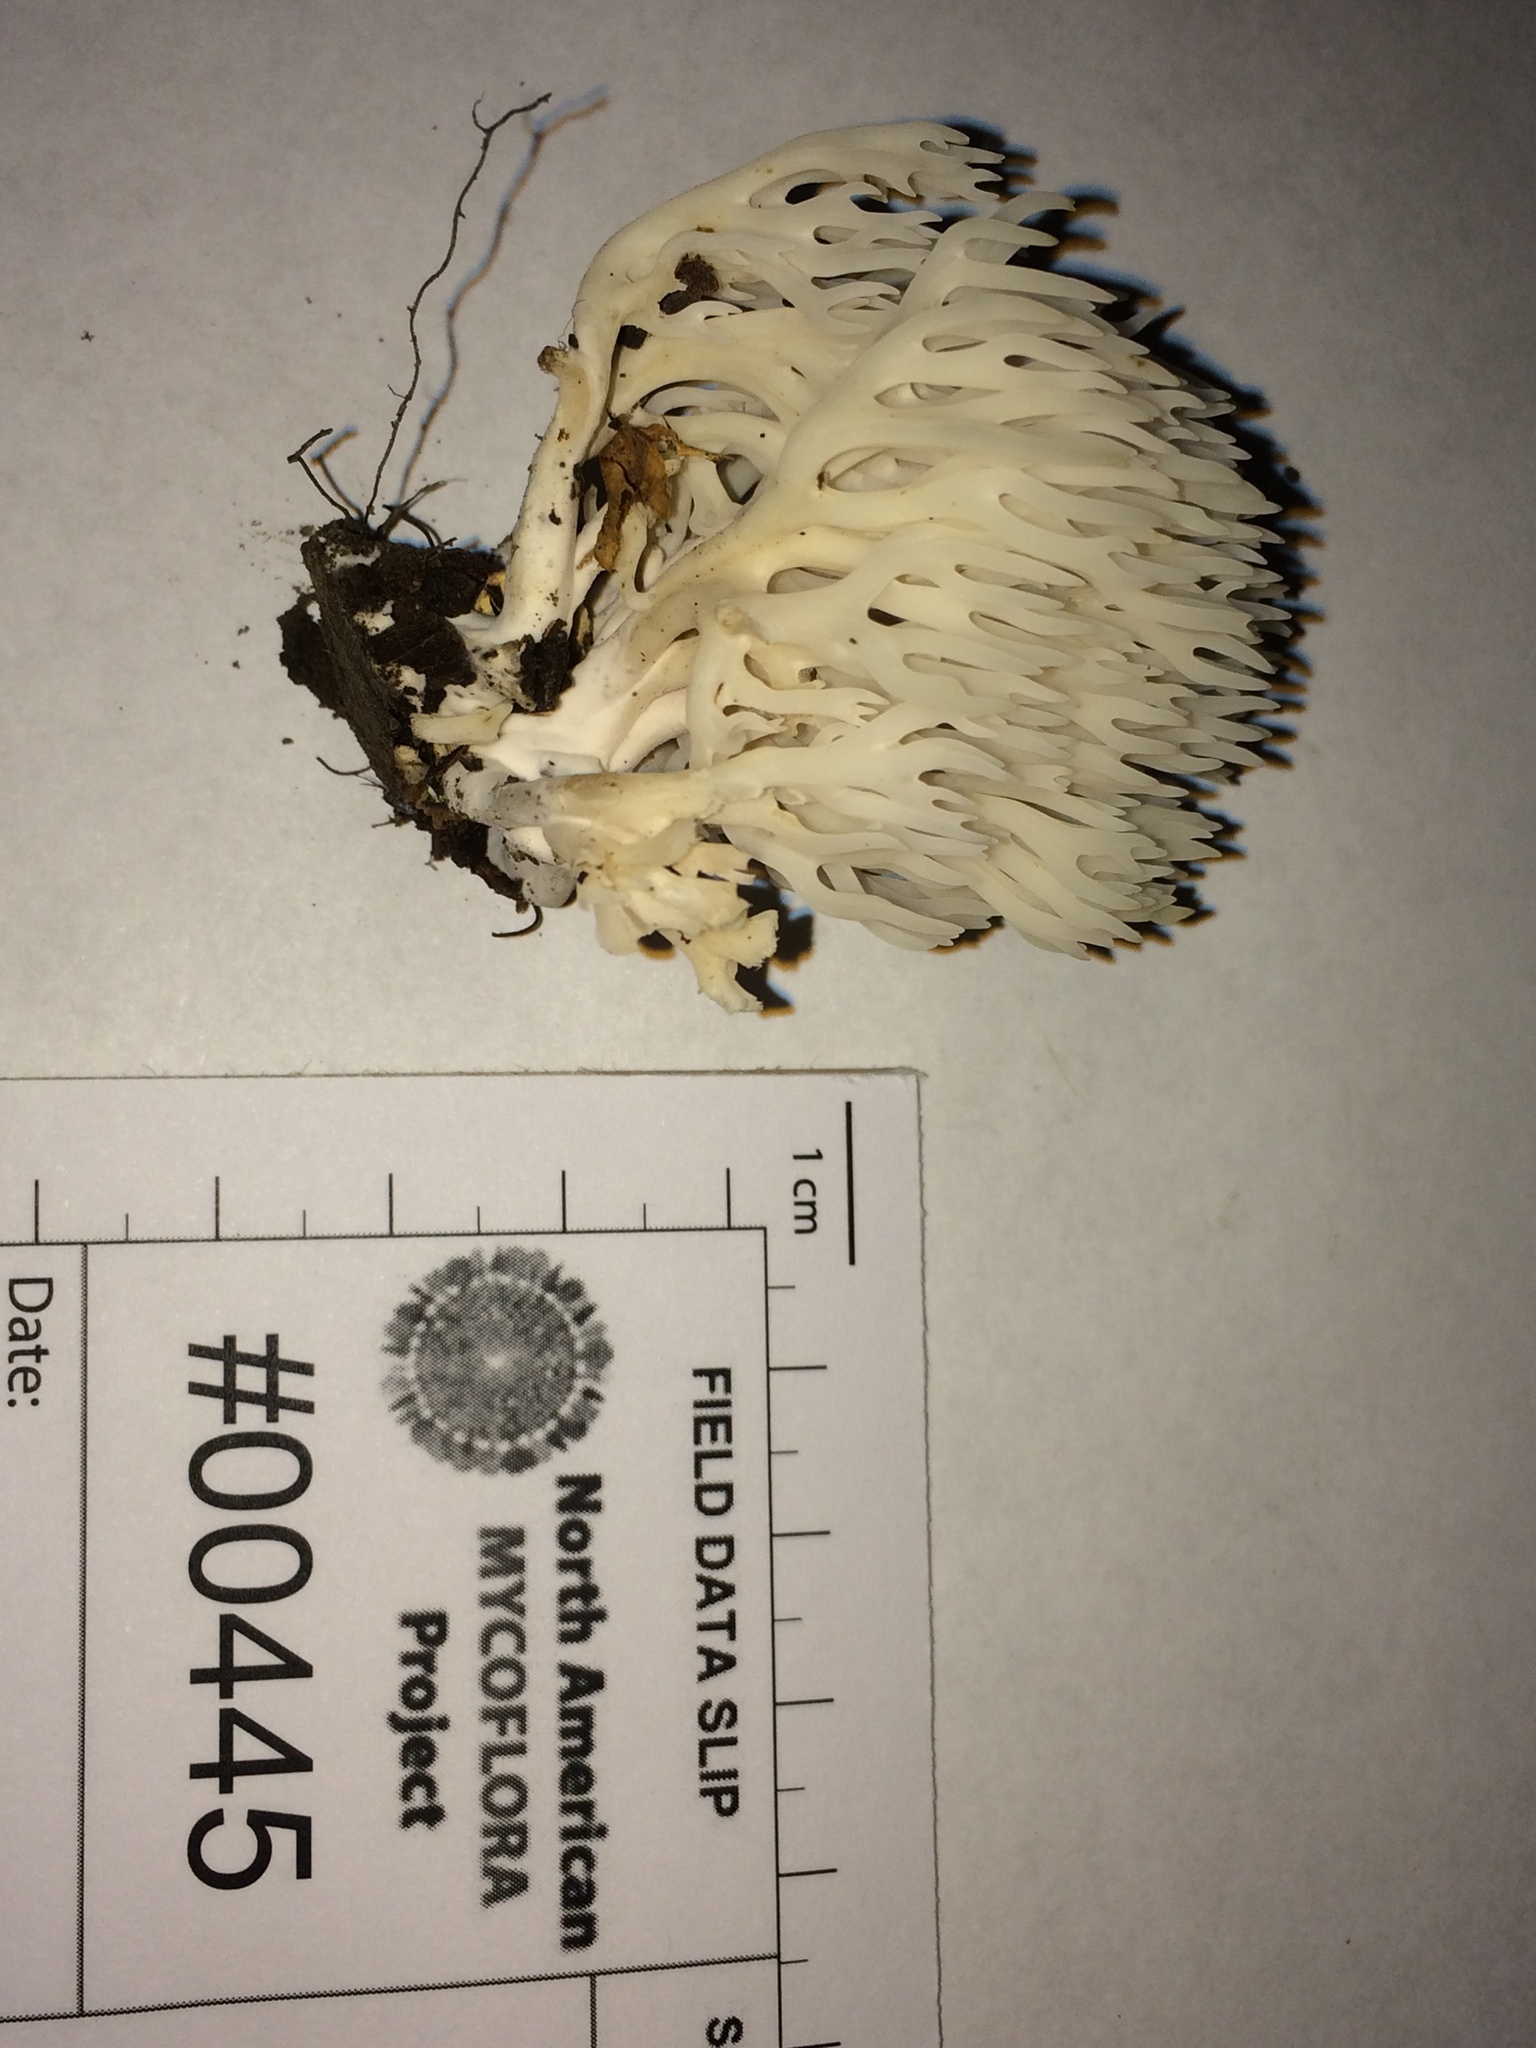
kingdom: Fungi
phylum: Basidiomycota
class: Agaricomycetes
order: Agaricales
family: Clavariaceae
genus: Ramariopsis
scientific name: Ramariopsis kunzei
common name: Ivory coral
